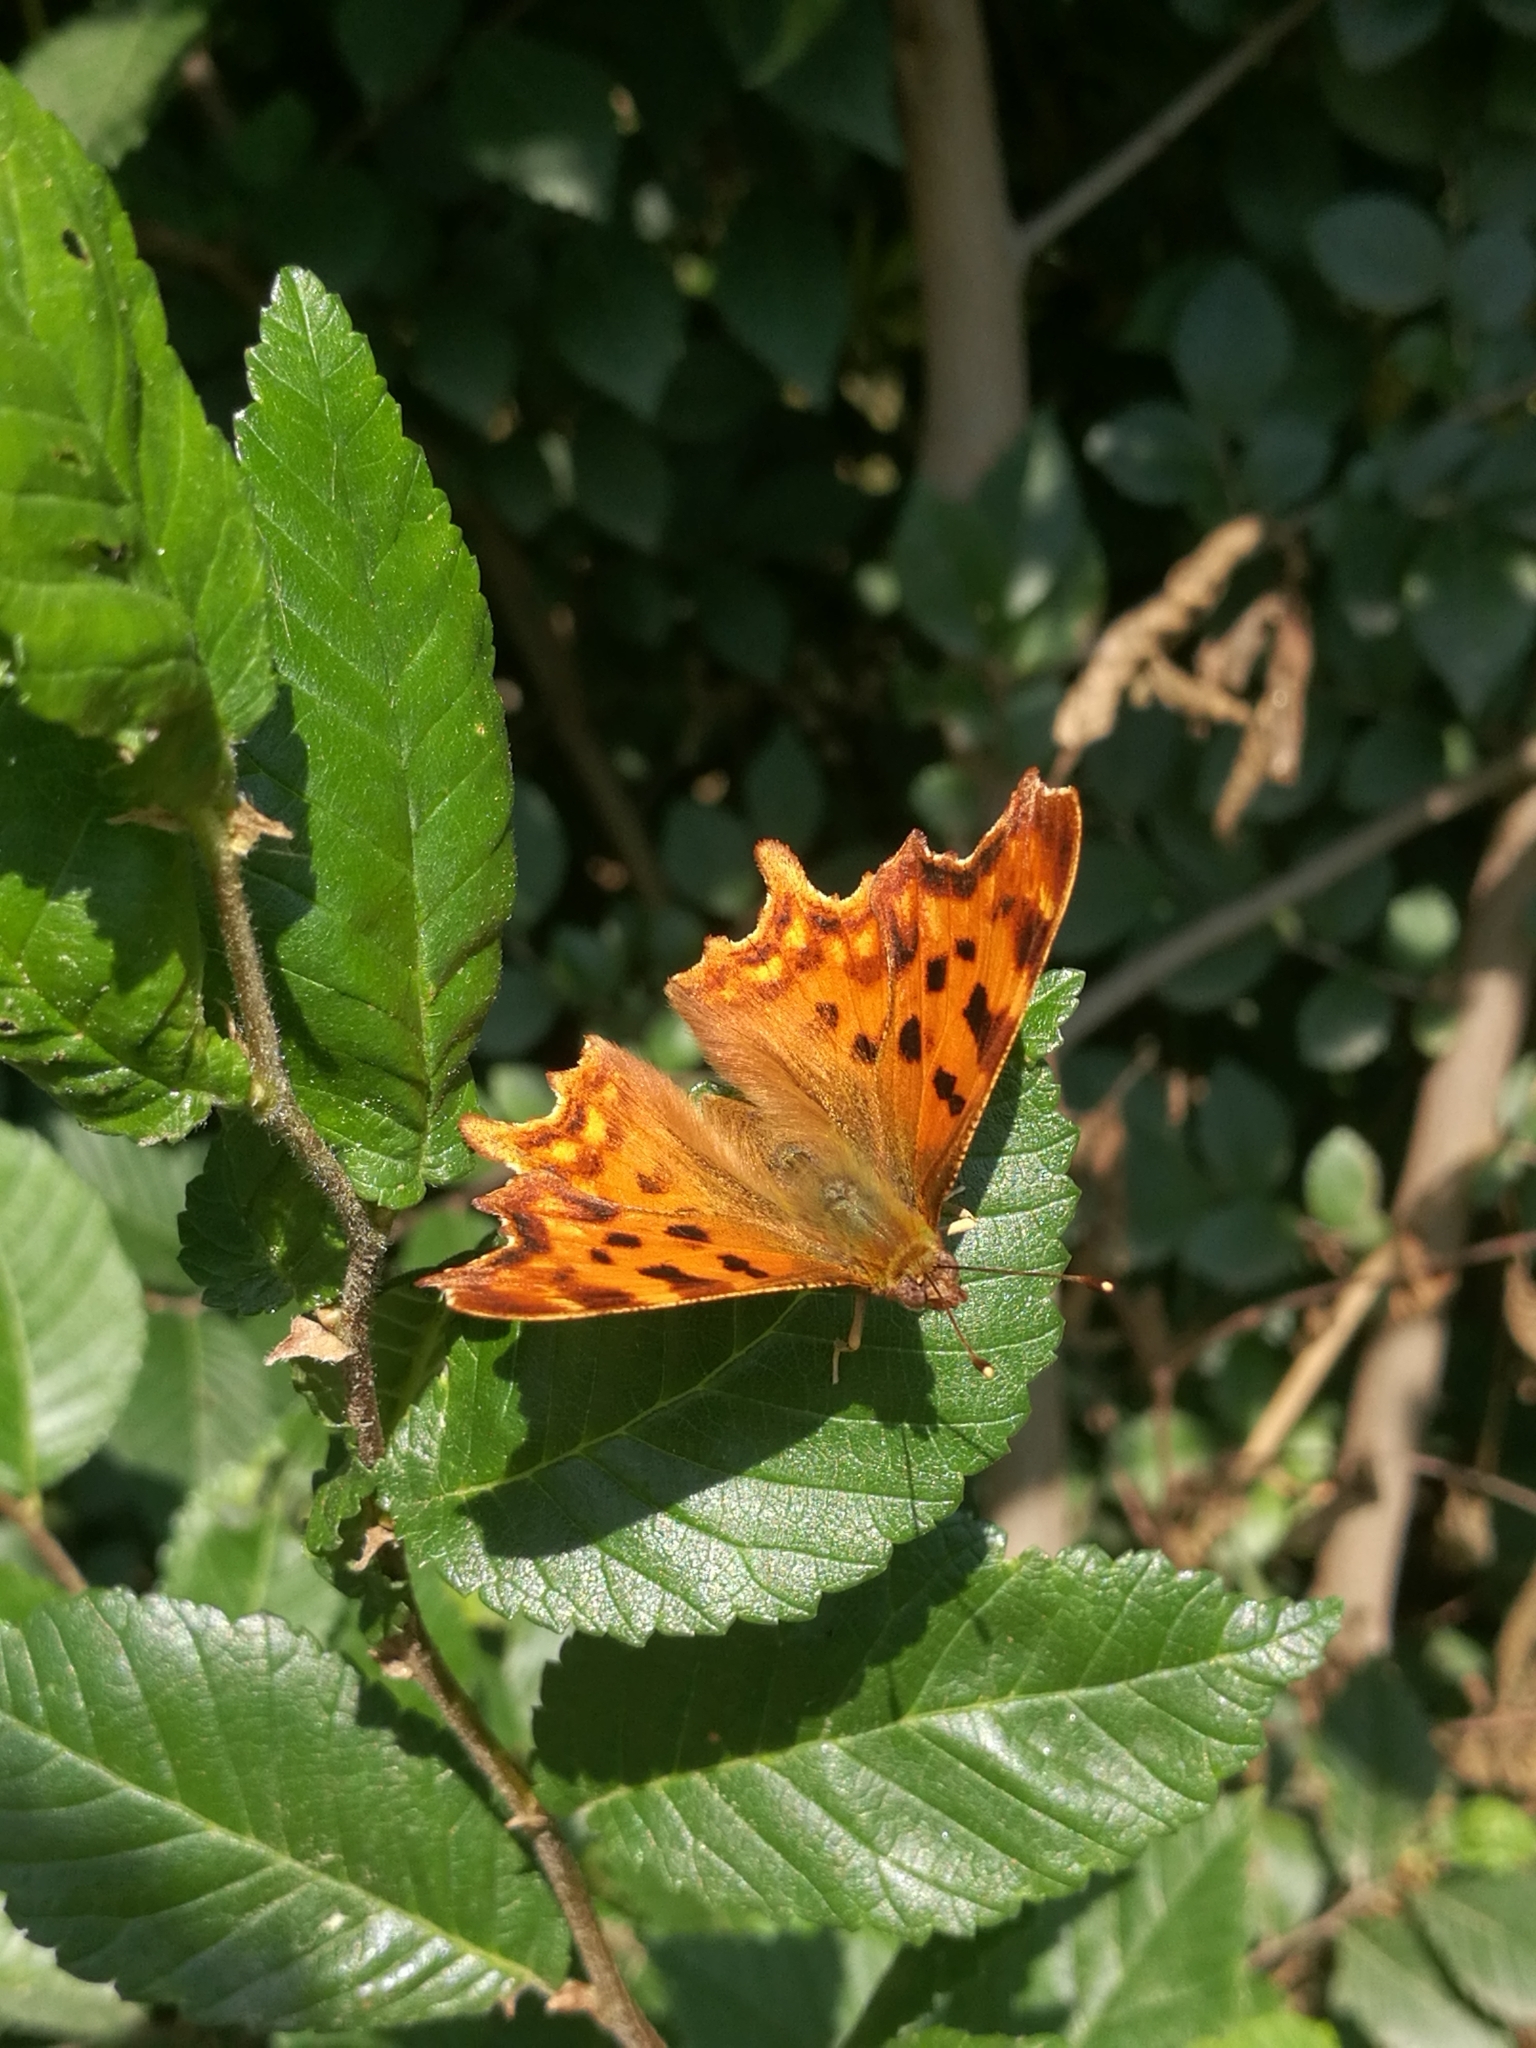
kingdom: Animalia
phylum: Arthropoda
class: Insecta
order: Lepidoptera
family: Nymphalidae
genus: Polygonia
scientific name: Polygonia c-album
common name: Comma
